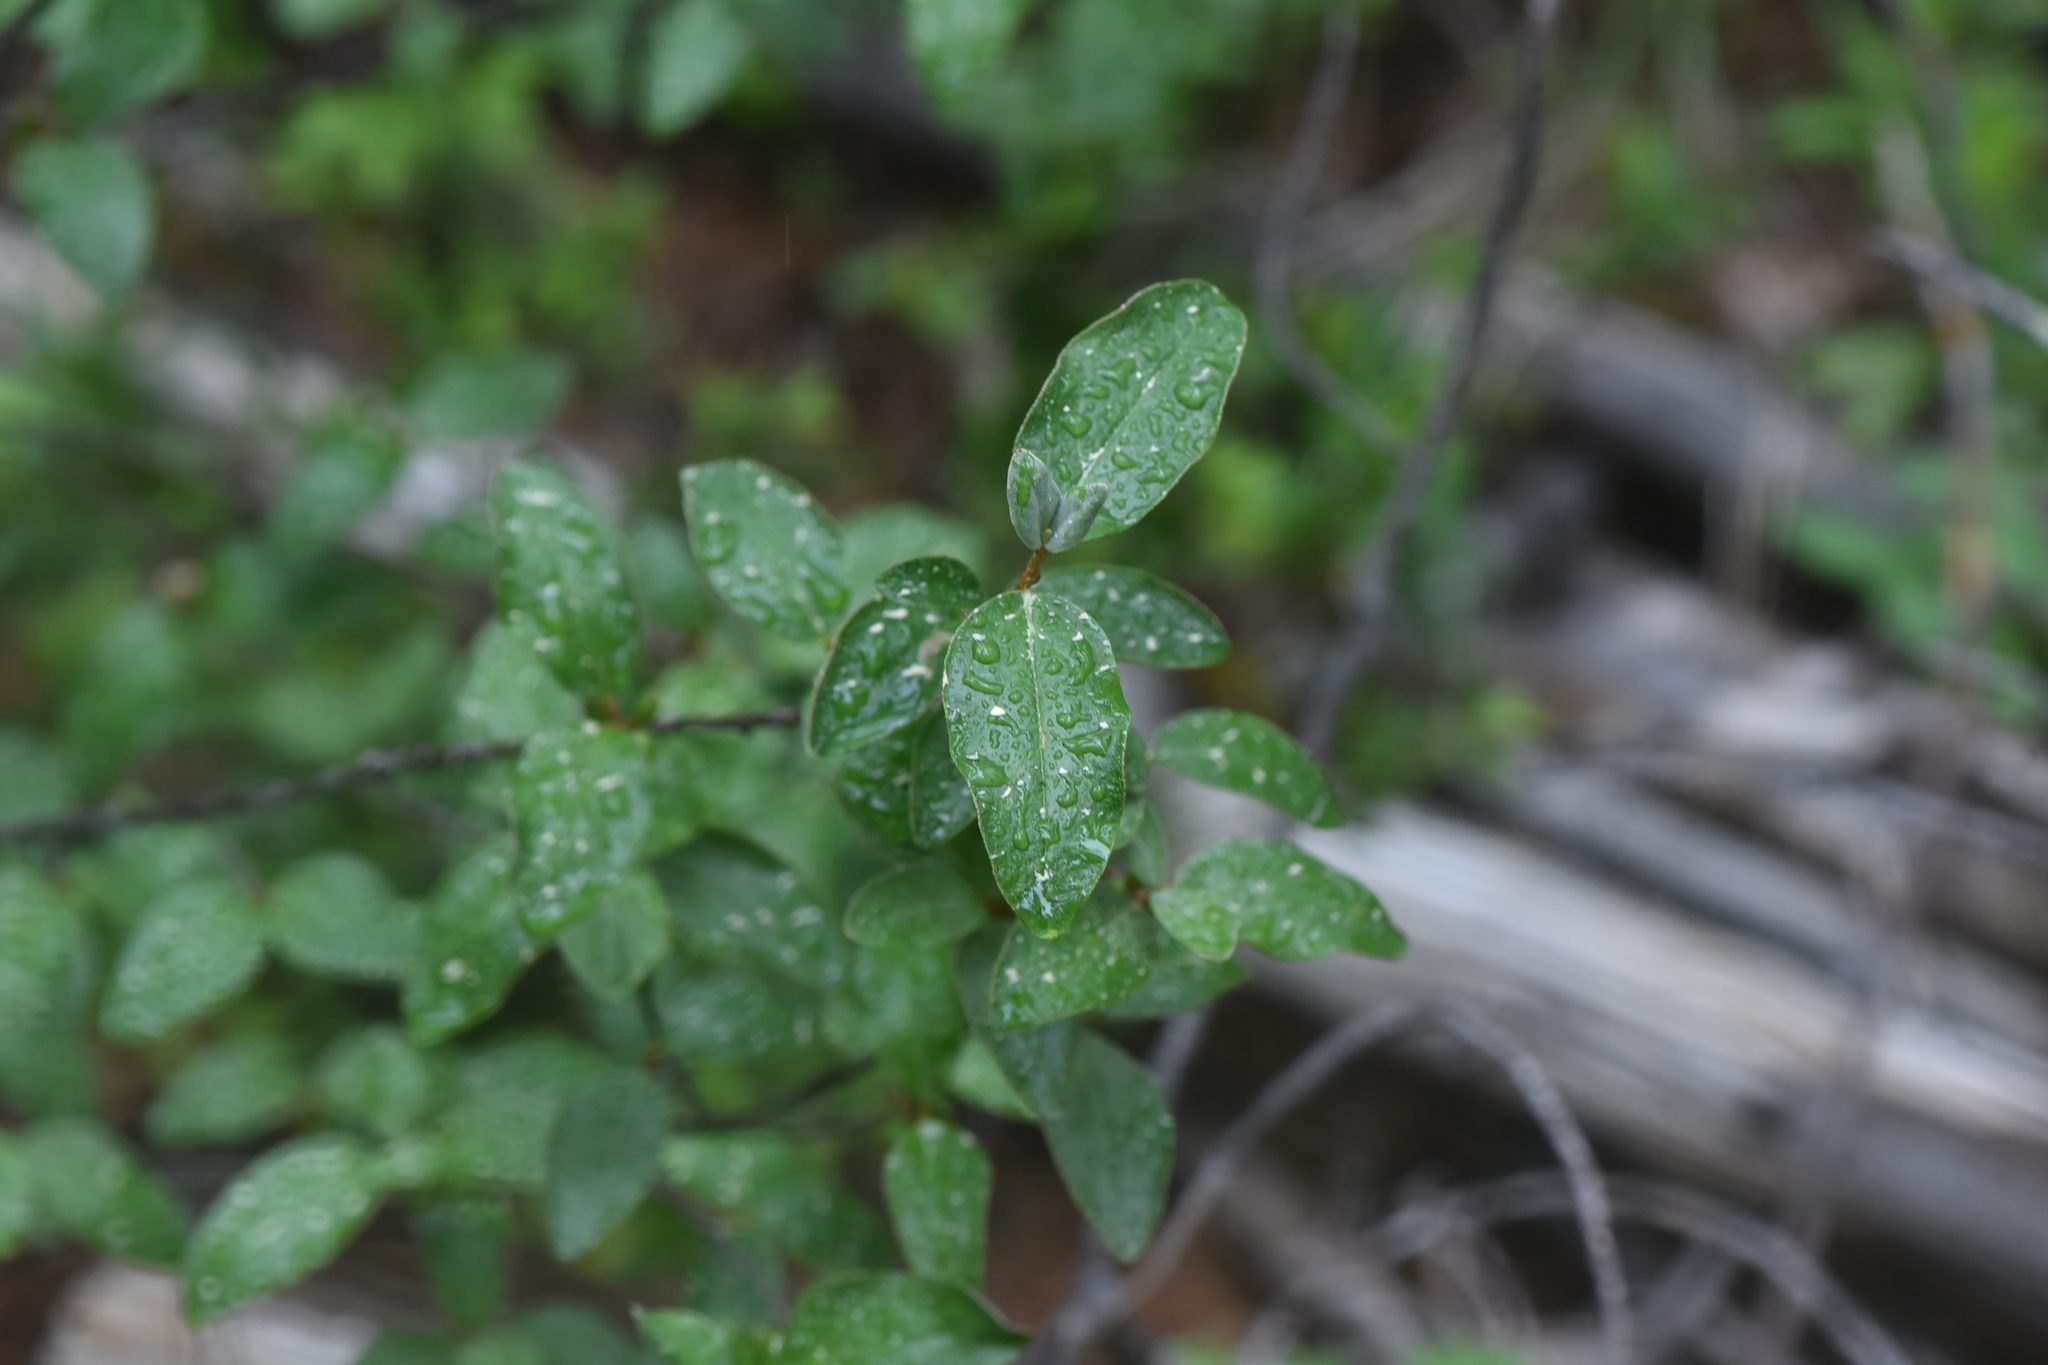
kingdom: Plantae
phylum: Tracheophyta
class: Magnoliopsida
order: Rosales
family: Elaeagnaceae
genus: Shepherdia
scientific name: Shepherdia canadensis
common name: Soapberry
